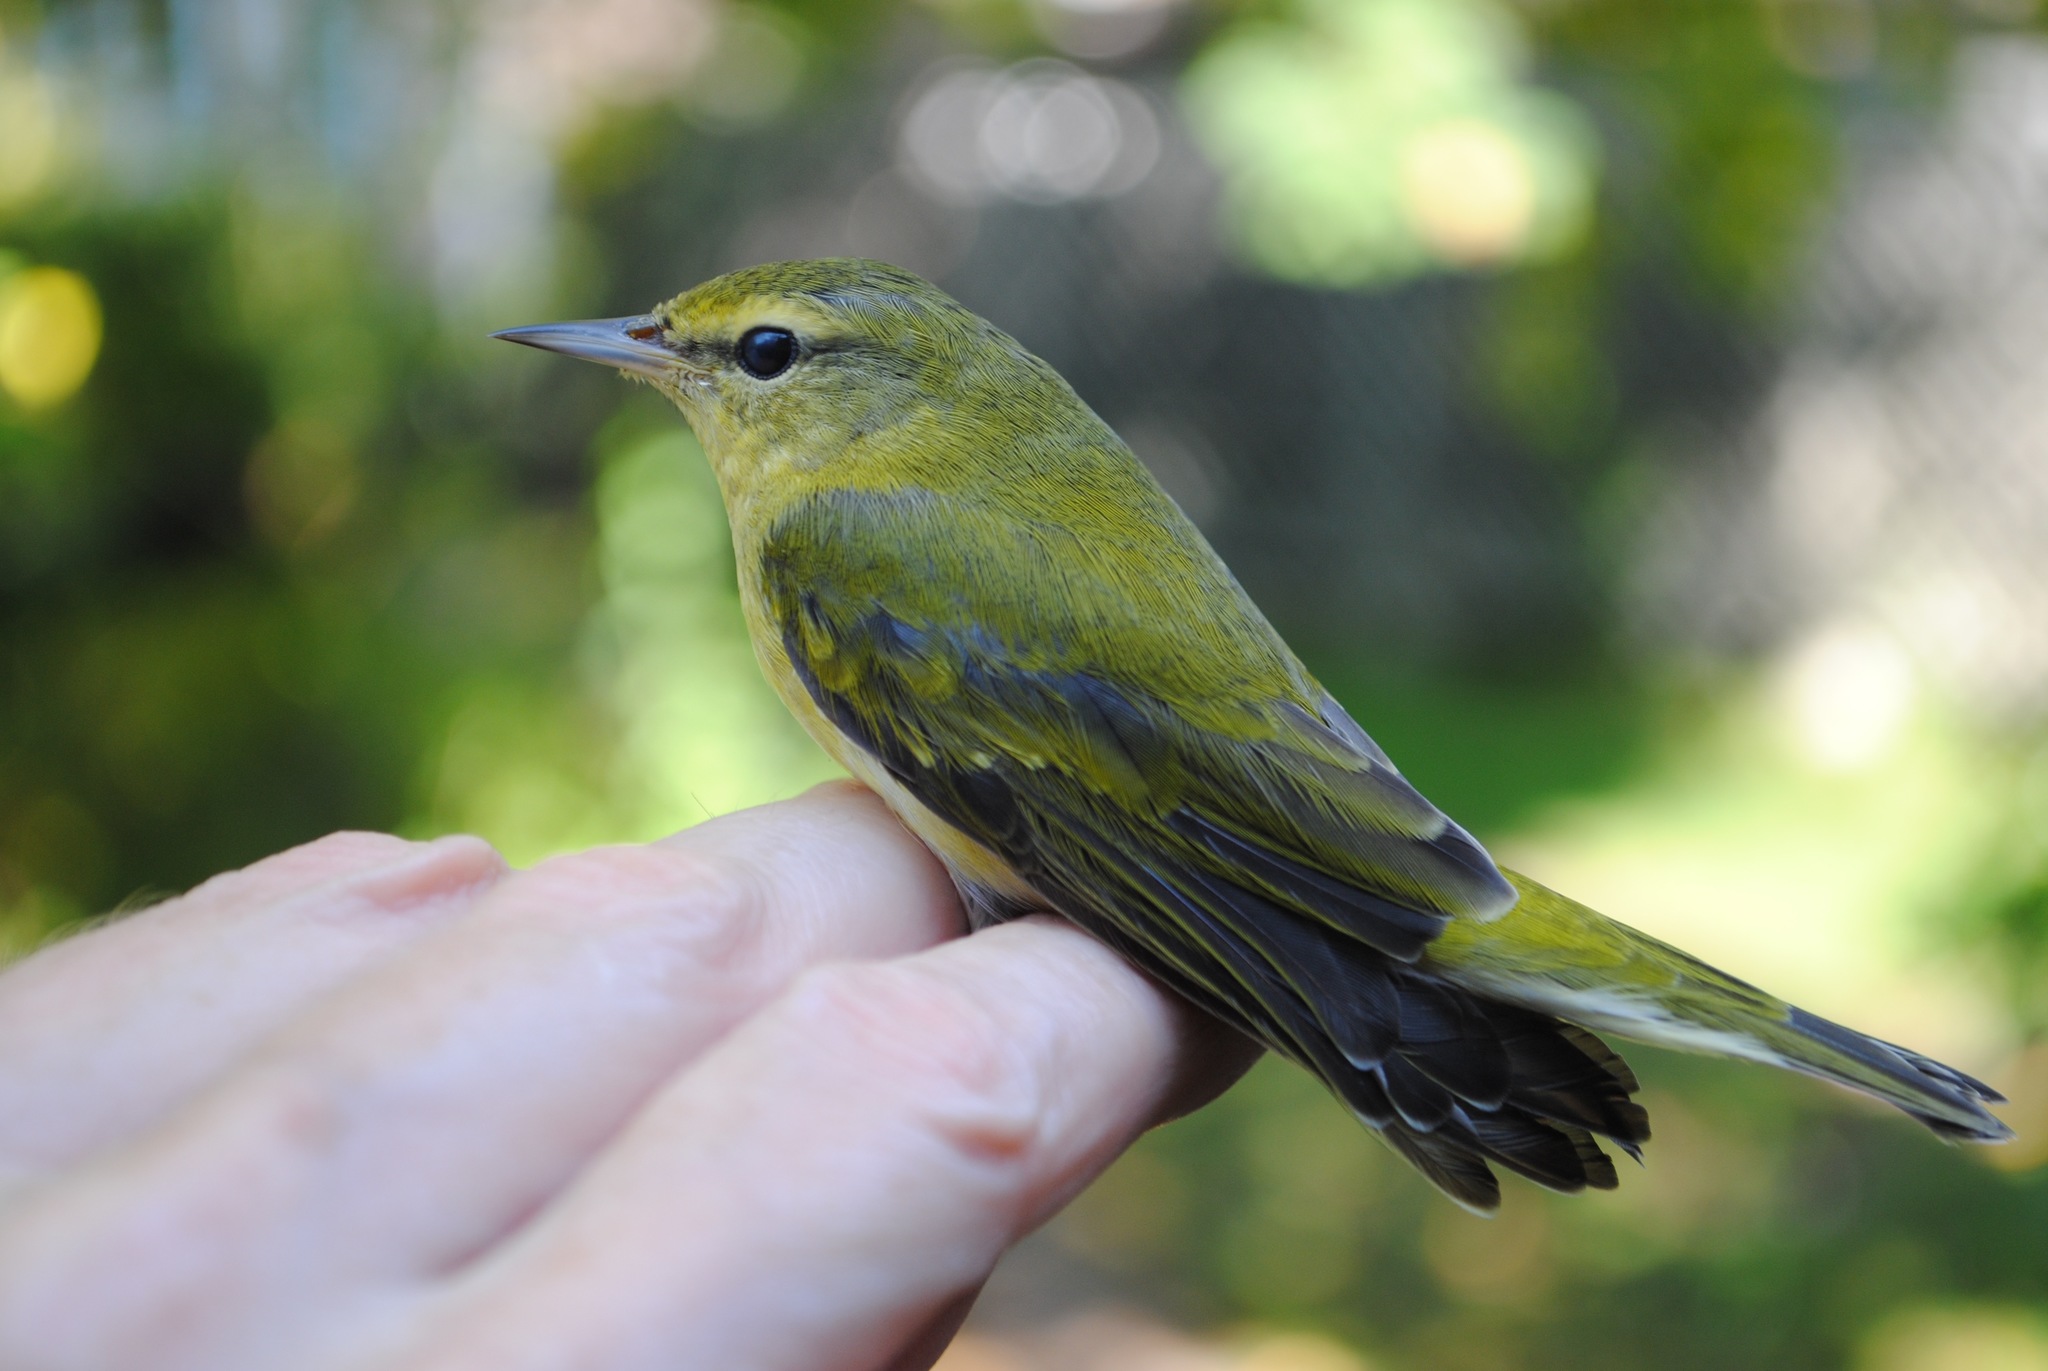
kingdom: Animalia
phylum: Chordata
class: Aves
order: Passeriformes
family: Parulidae
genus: Leiothlypis
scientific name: Leiothlypis peregrina
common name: Tennessee warbler
